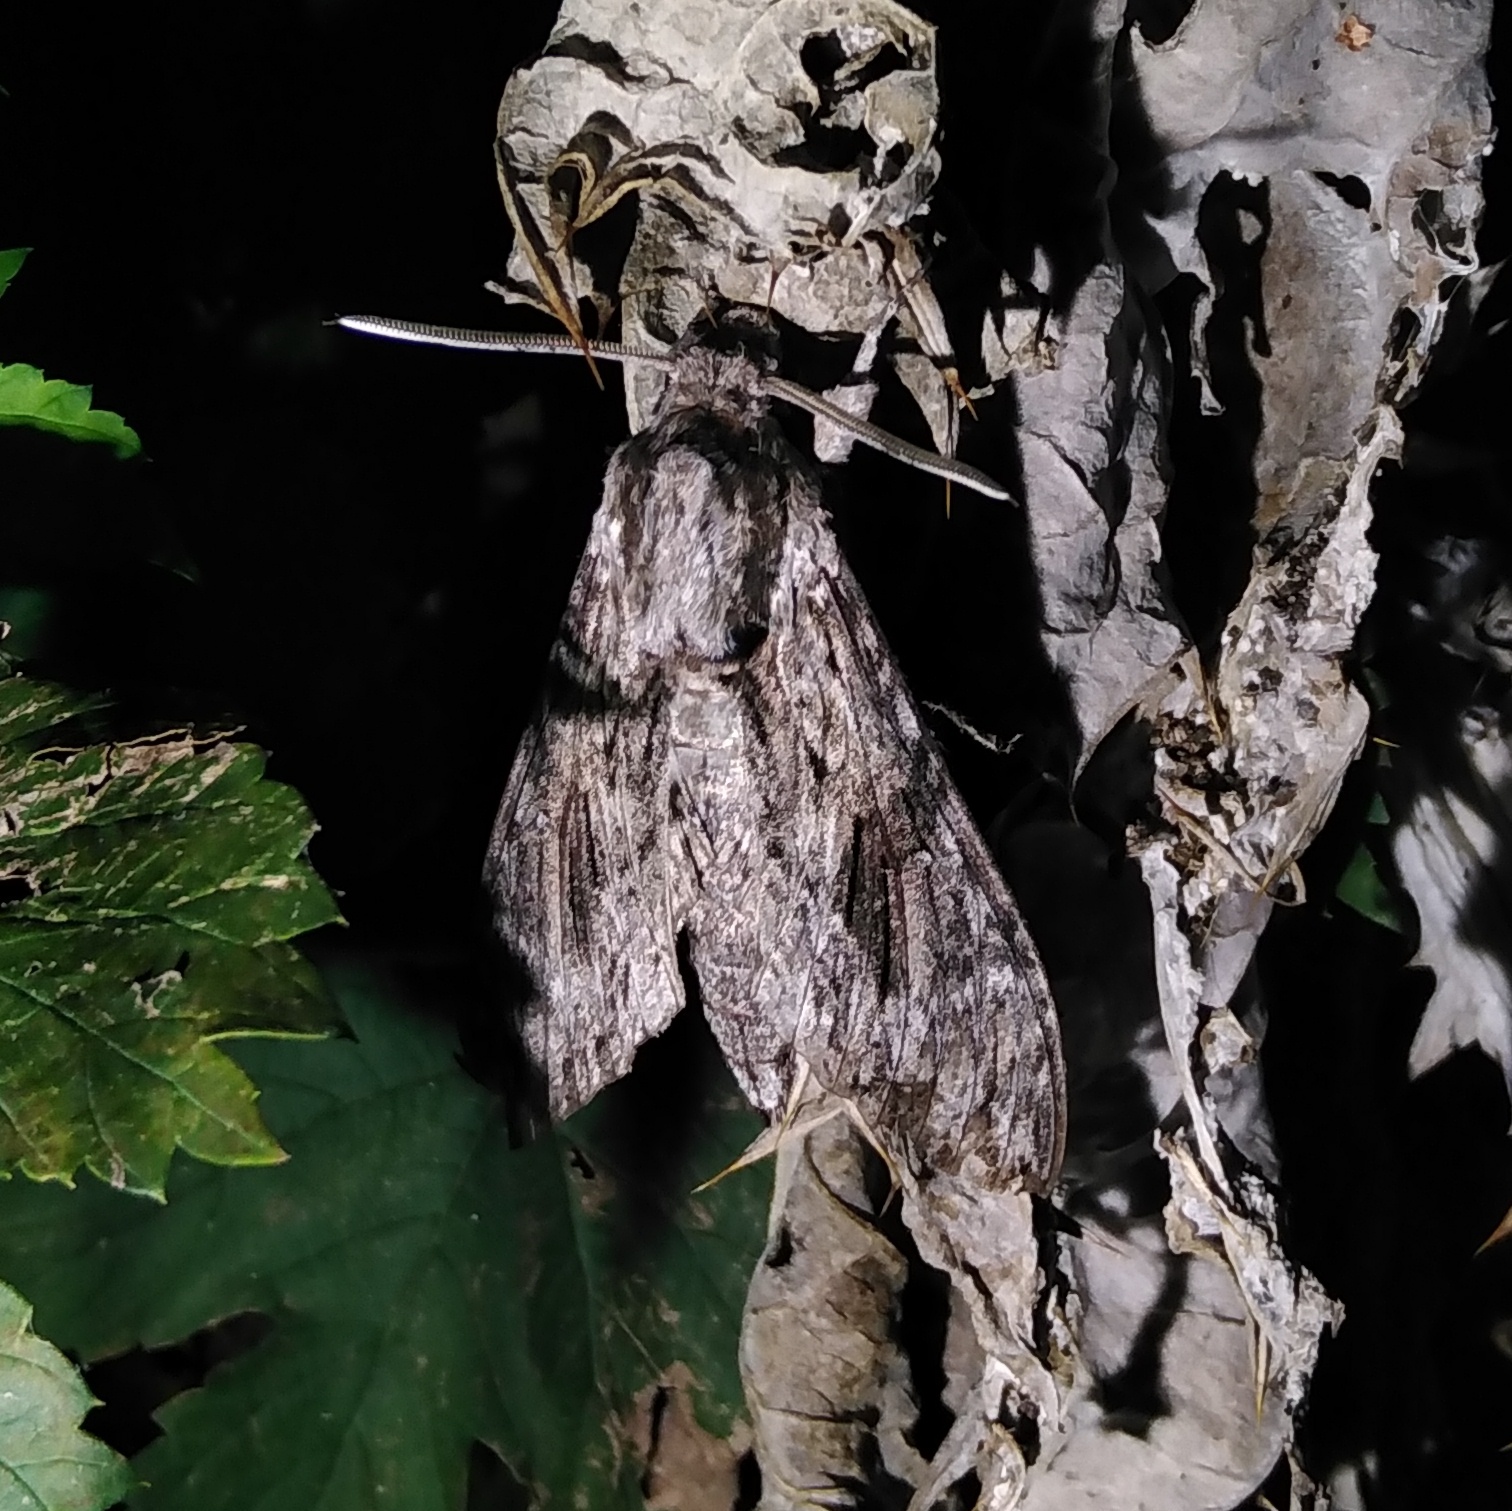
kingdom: Animalia
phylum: Arthropoda
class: Insecta
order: Lepidoptera
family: Sphingidae
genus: Agrius
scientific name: Agrius convolvuli
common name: Convolvulus hawkmoth
